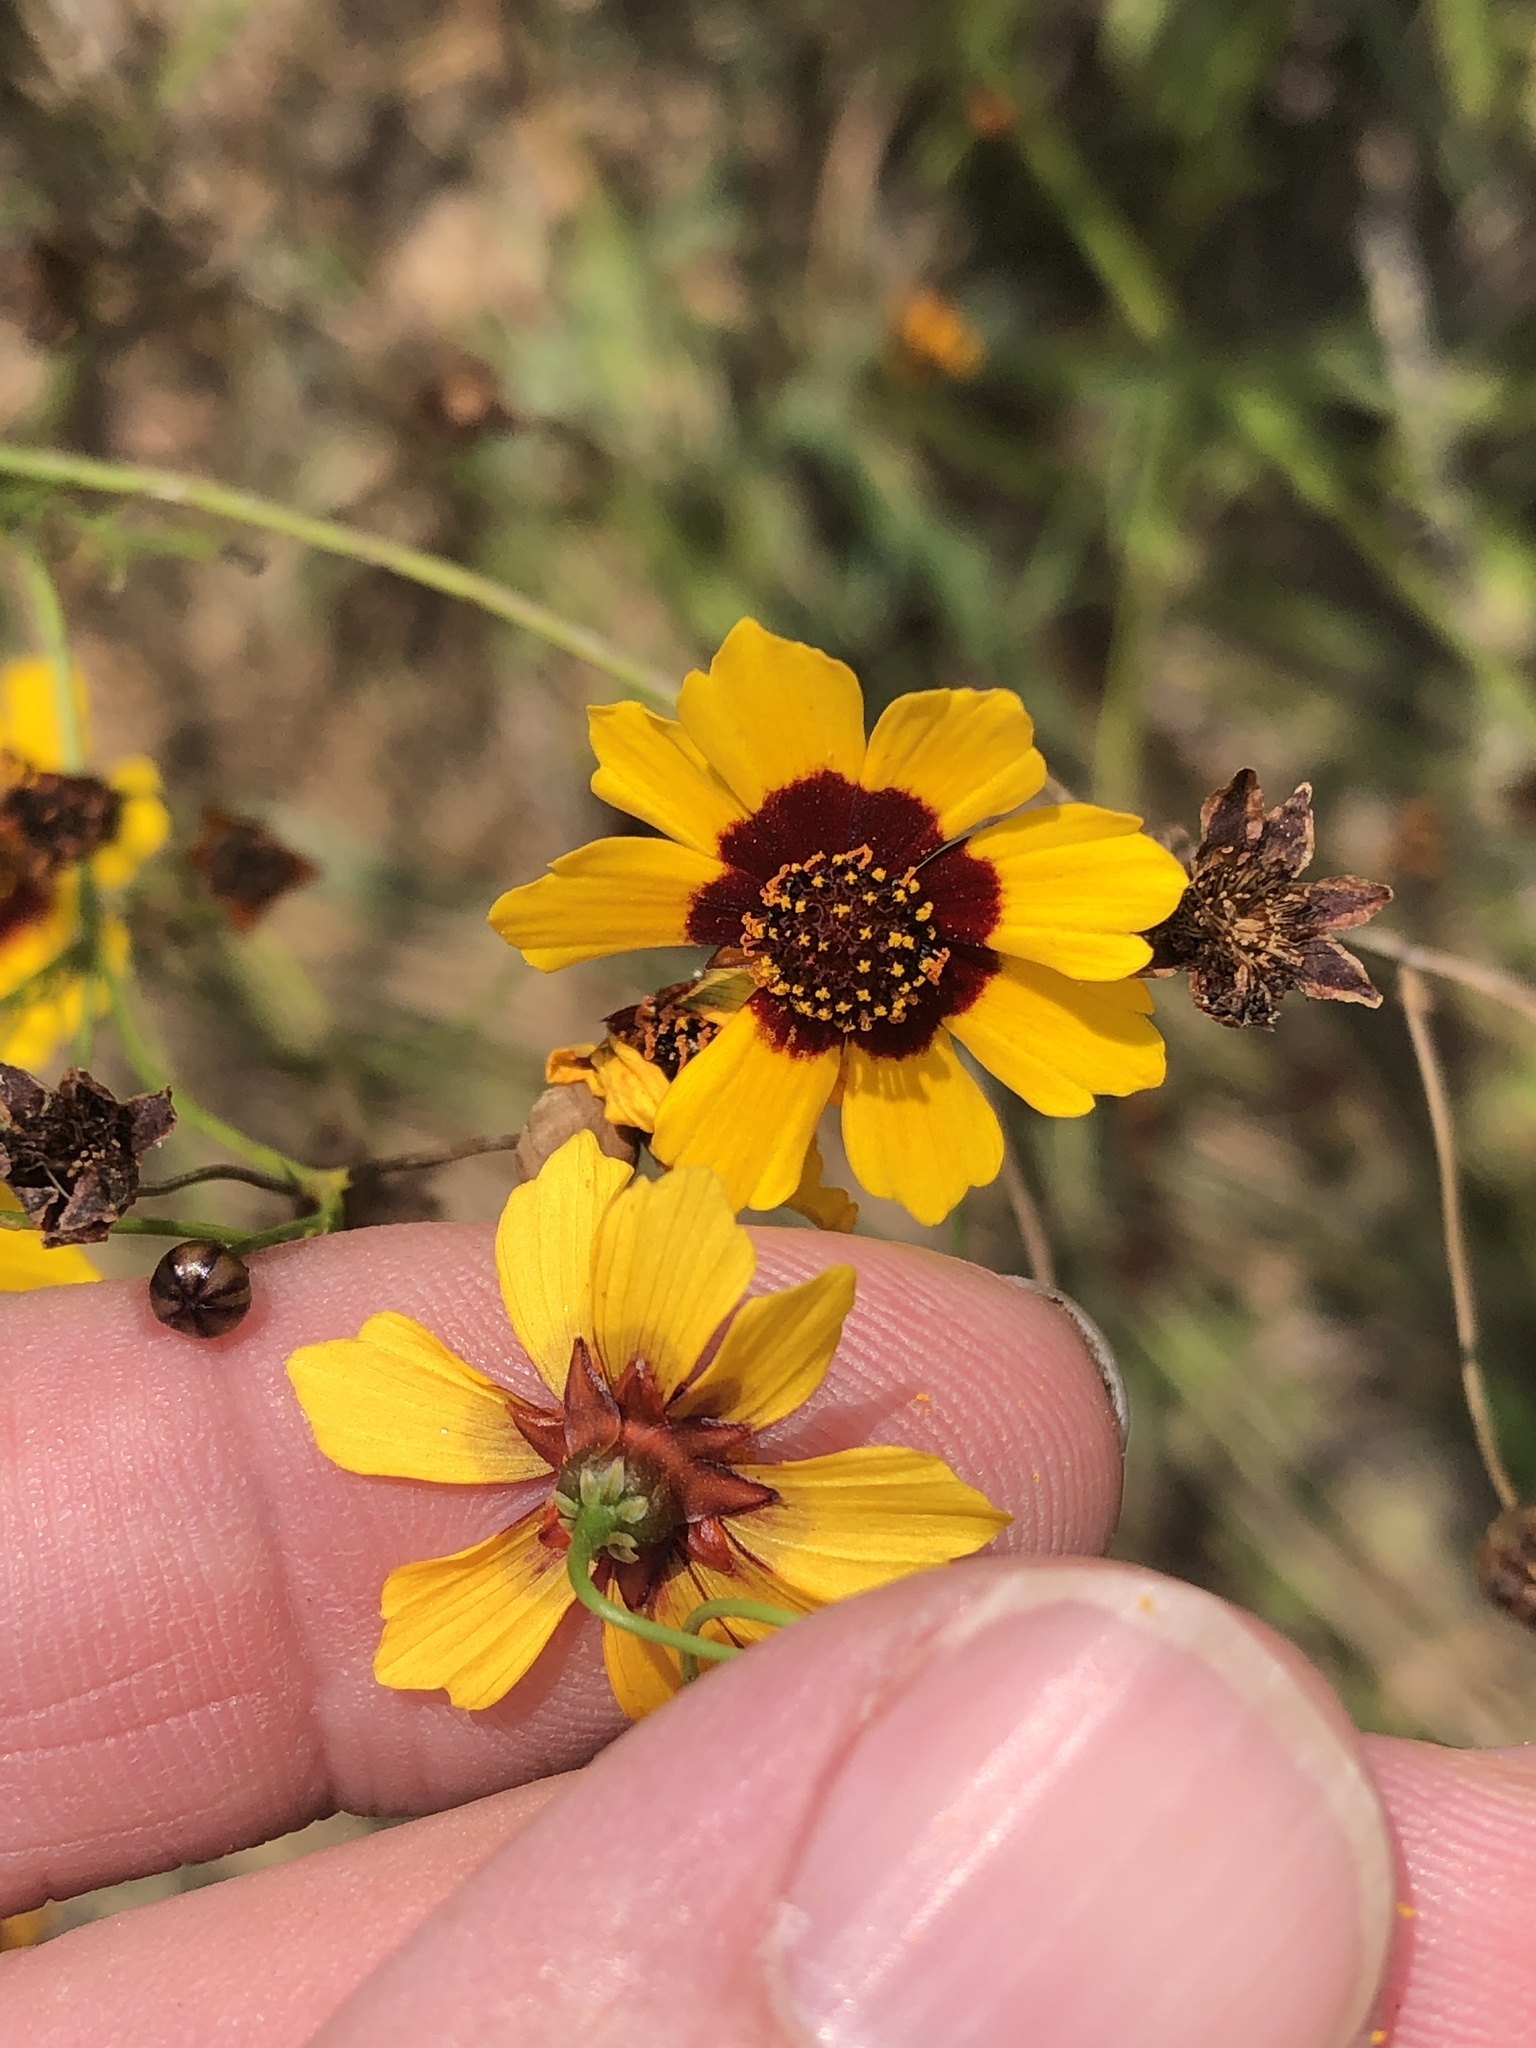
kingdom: Plantae
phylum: Tracheophyta
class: Magnoliopsida
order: Asterales
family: Asteraceae
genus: Coreopsis
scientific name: Coreopsis tinctoria
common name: Garden tickseed
